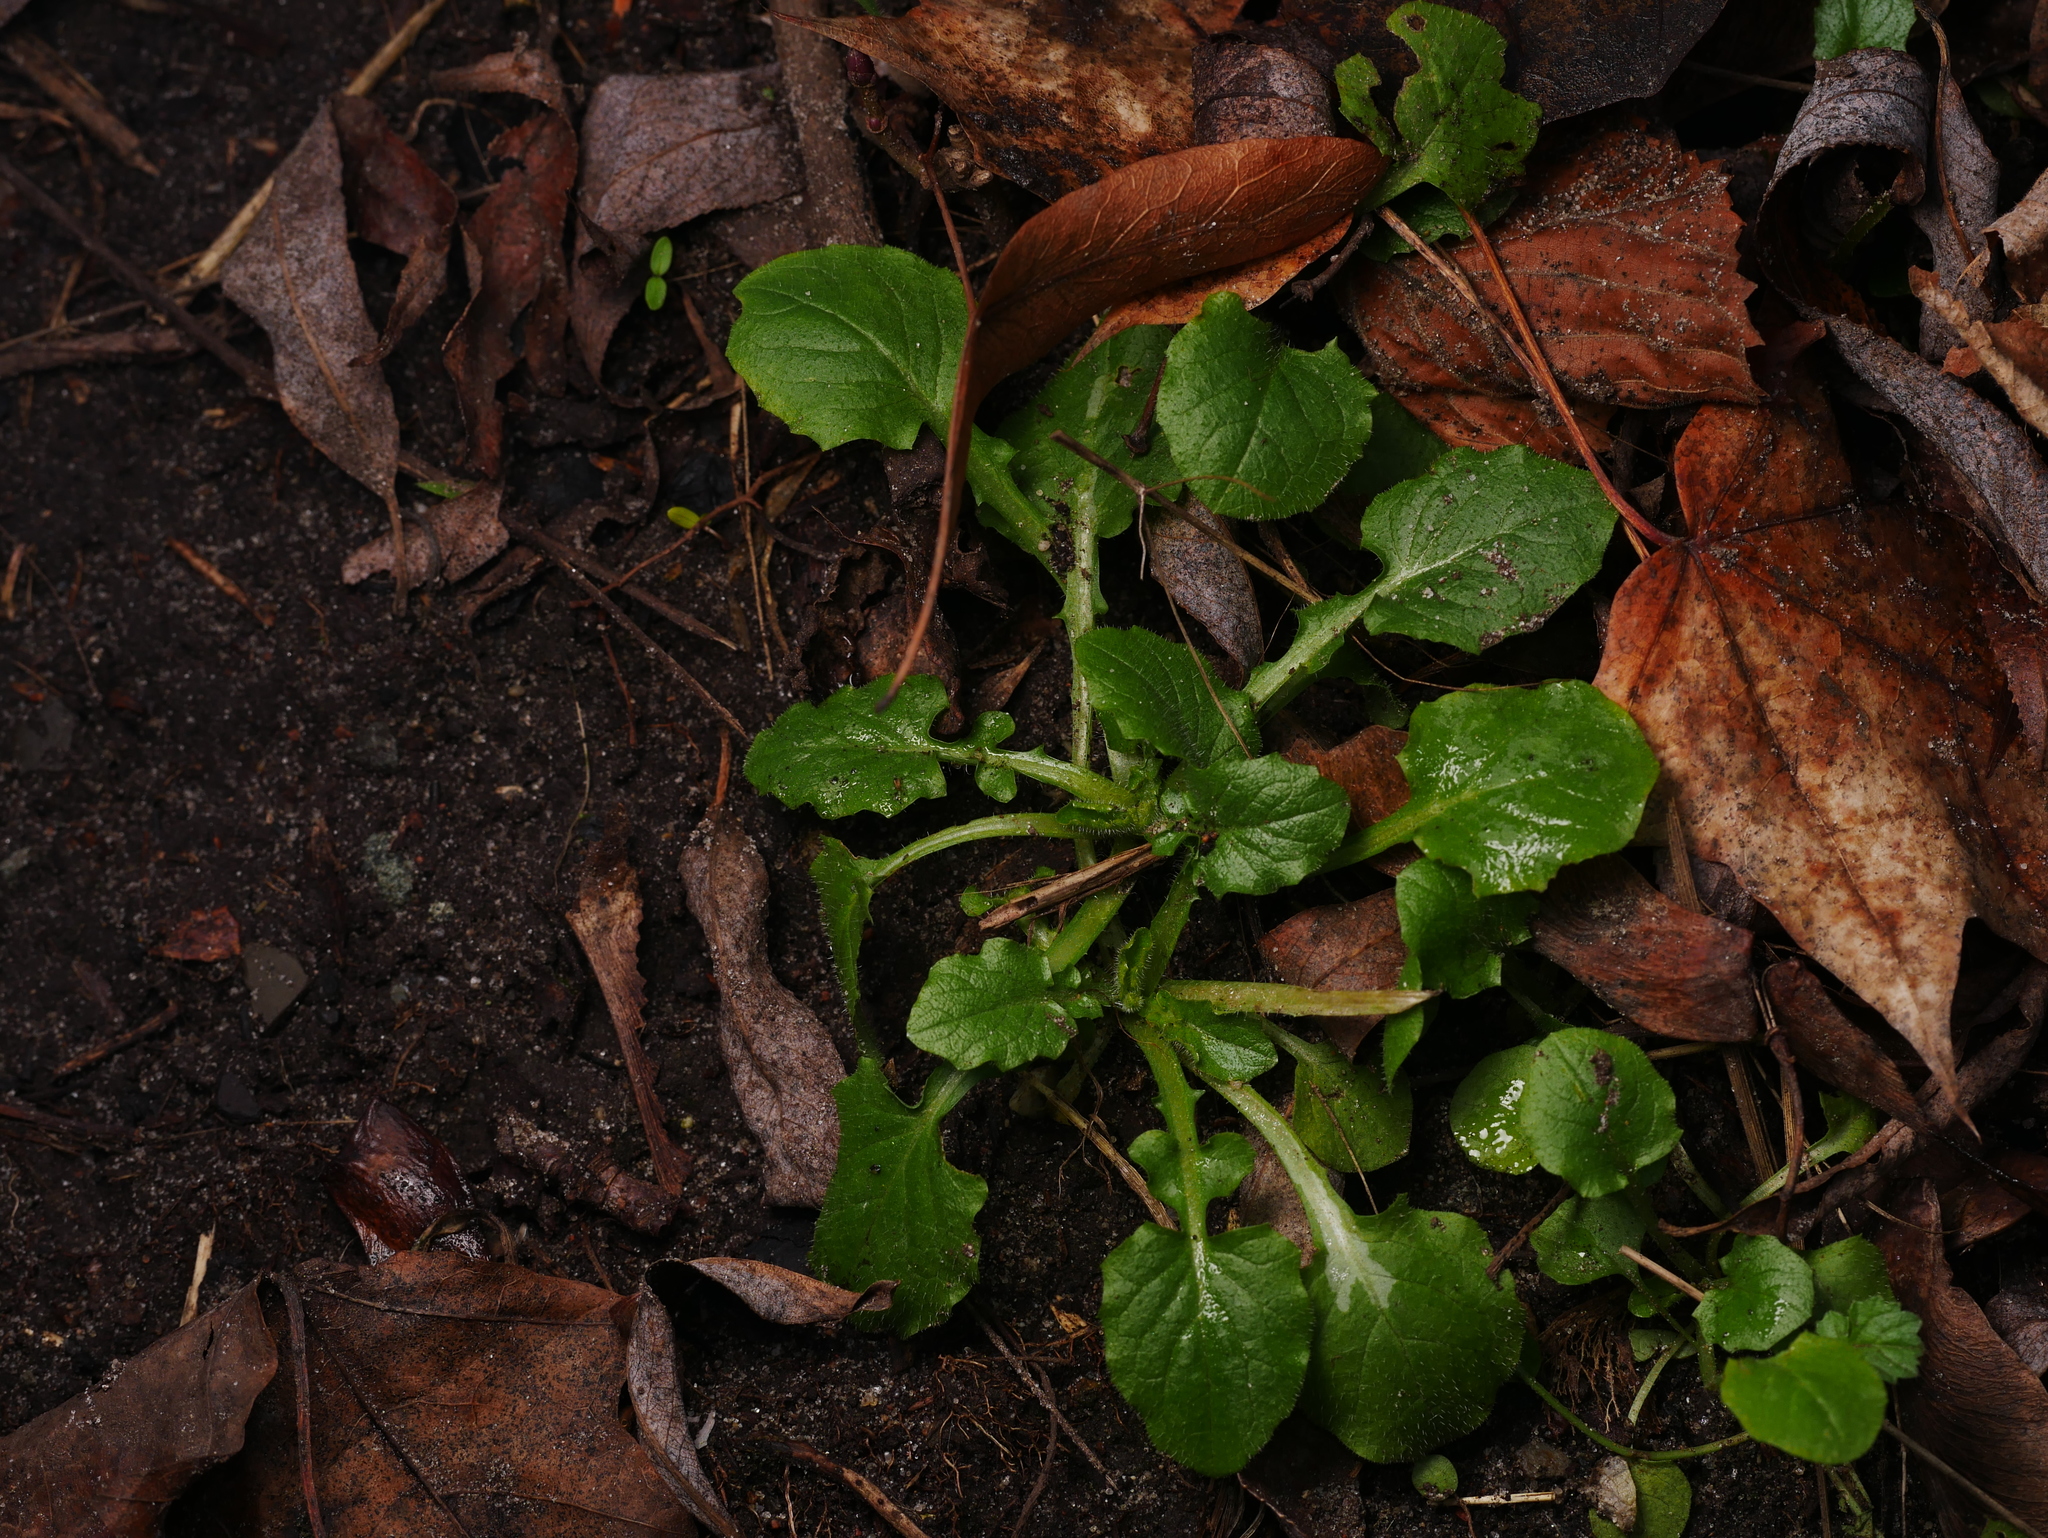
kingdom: Plantae
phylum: Tracheophyta
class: Magnoliopsida
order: Asterales
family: Asteraceae
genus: Lapsana
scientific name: Lapsana communis
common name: Nipplewort
